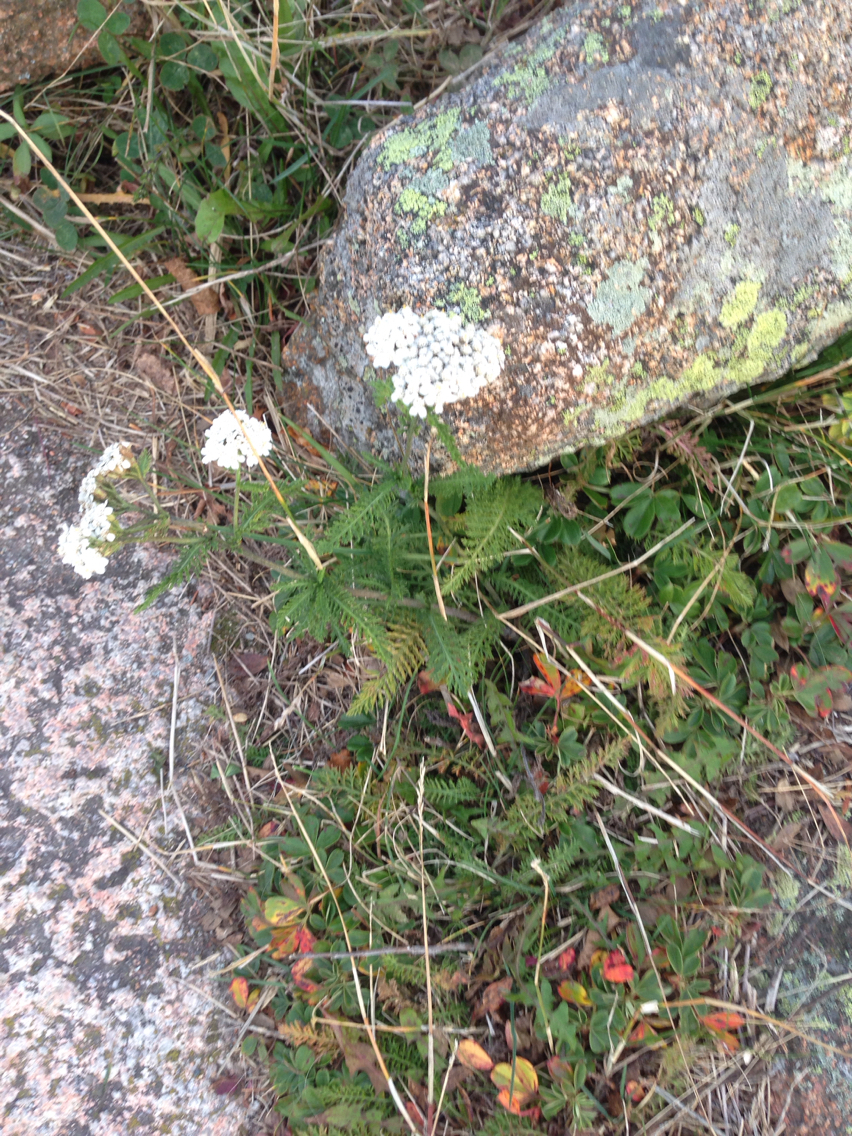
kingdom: Plantae
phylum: Tracheophyta
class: Magnoliopsida
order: Asterales
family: Asteraceae
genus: Achillea
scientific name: Achillea millefolium
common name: Yarrow
